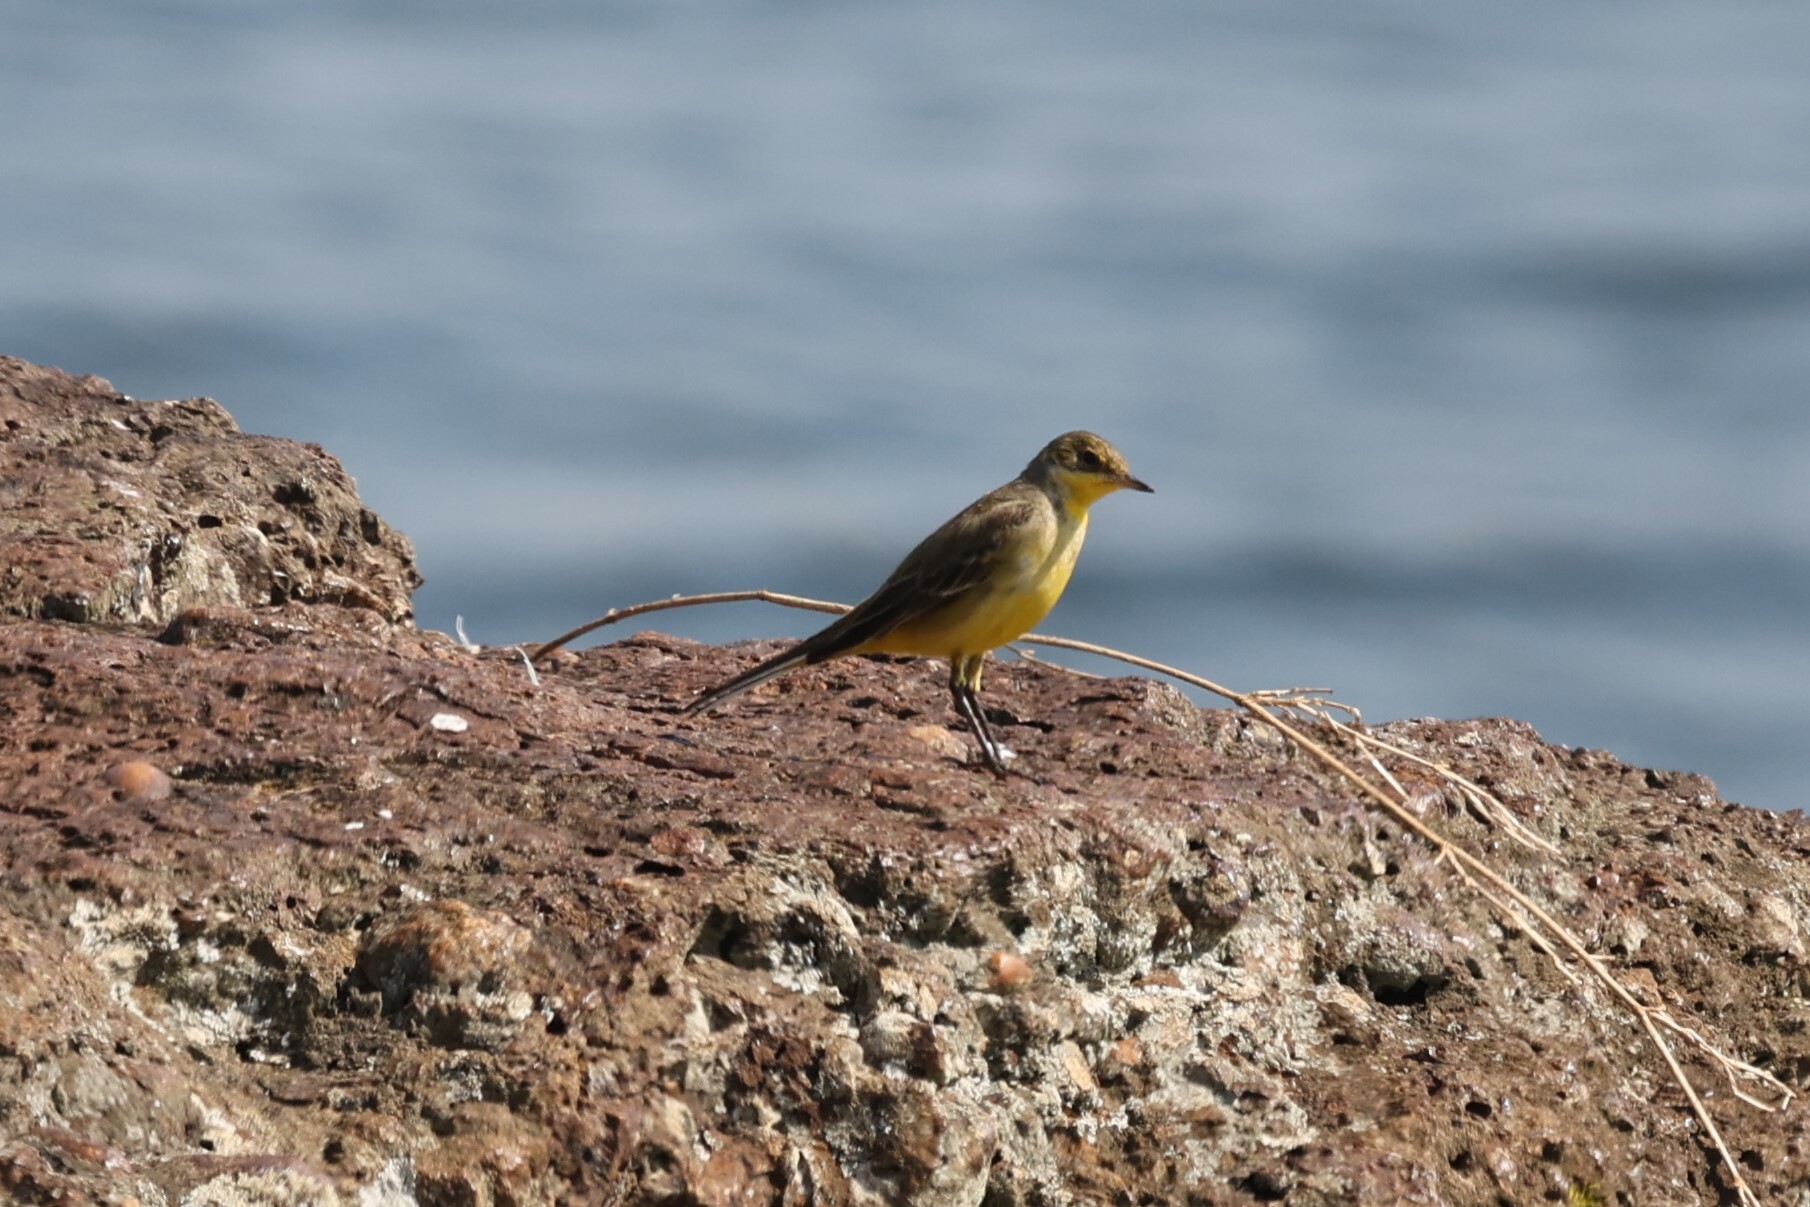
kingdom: Animalia
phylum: Chordata
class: Aves
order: Passeriformes
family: Motacillidae
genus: Motacilla
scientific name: Motacilla flava
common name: Western yellow wagtail
